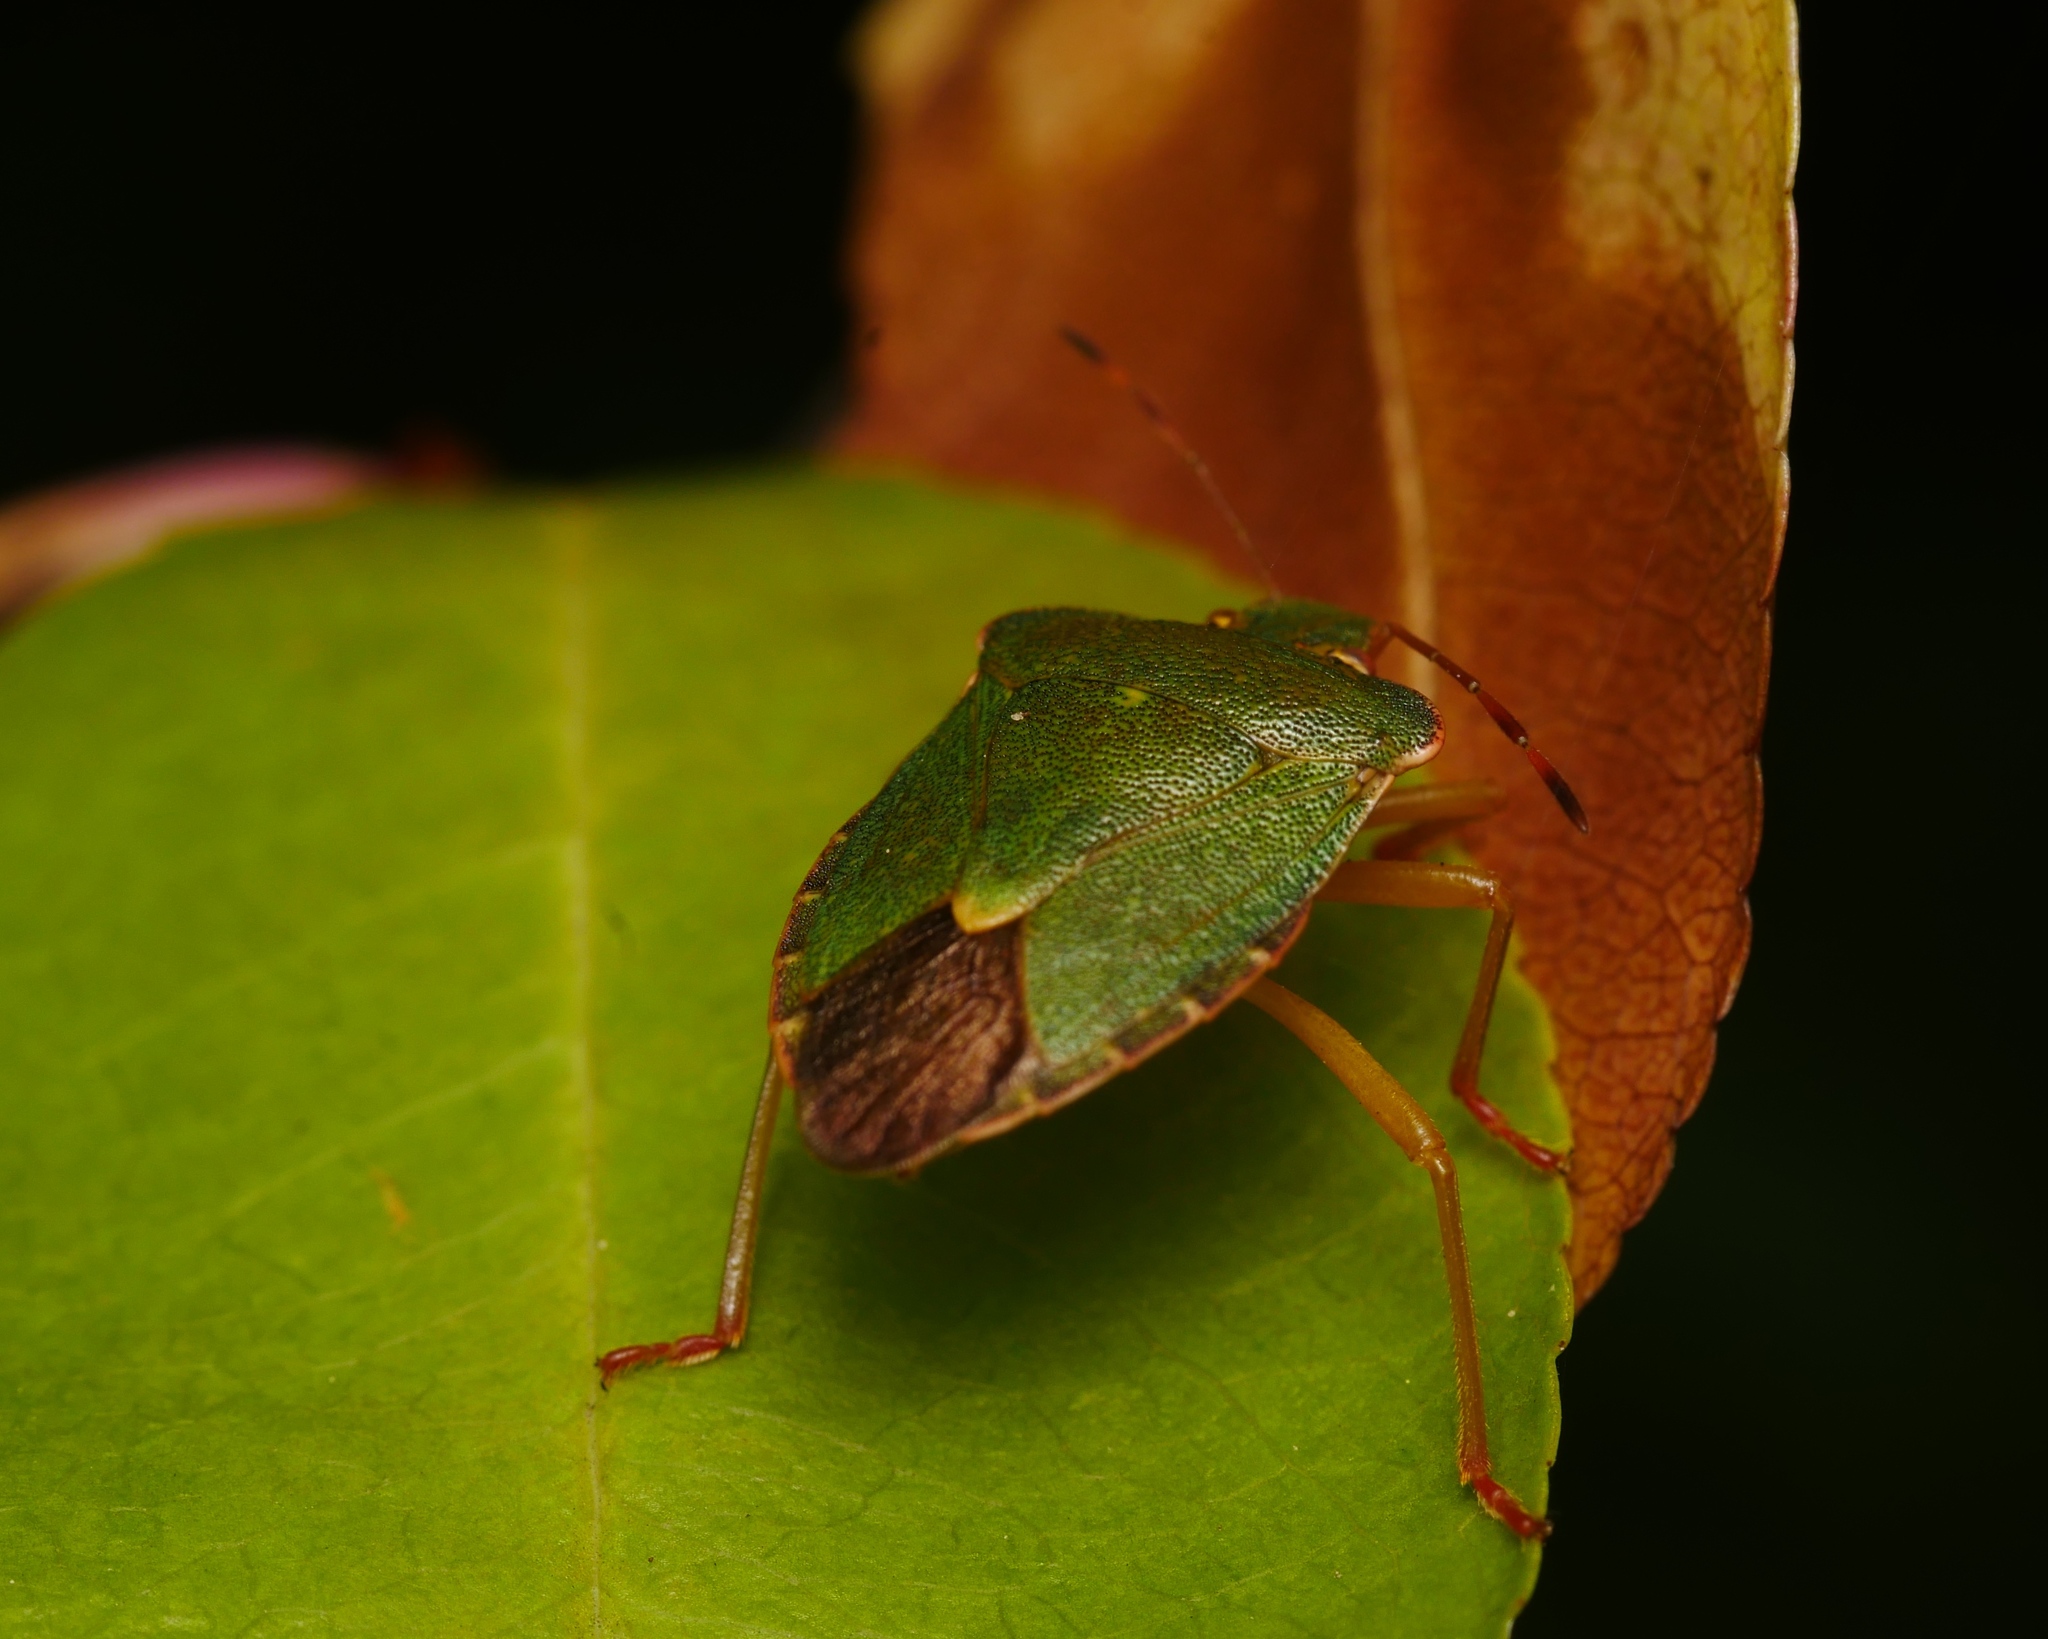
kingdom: Animalia
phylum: Arthropoda
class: Insecta
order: Hemiptera
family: Pentatomidae
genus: Palomena
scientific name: Palomena prasina
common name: Green shieldbug
